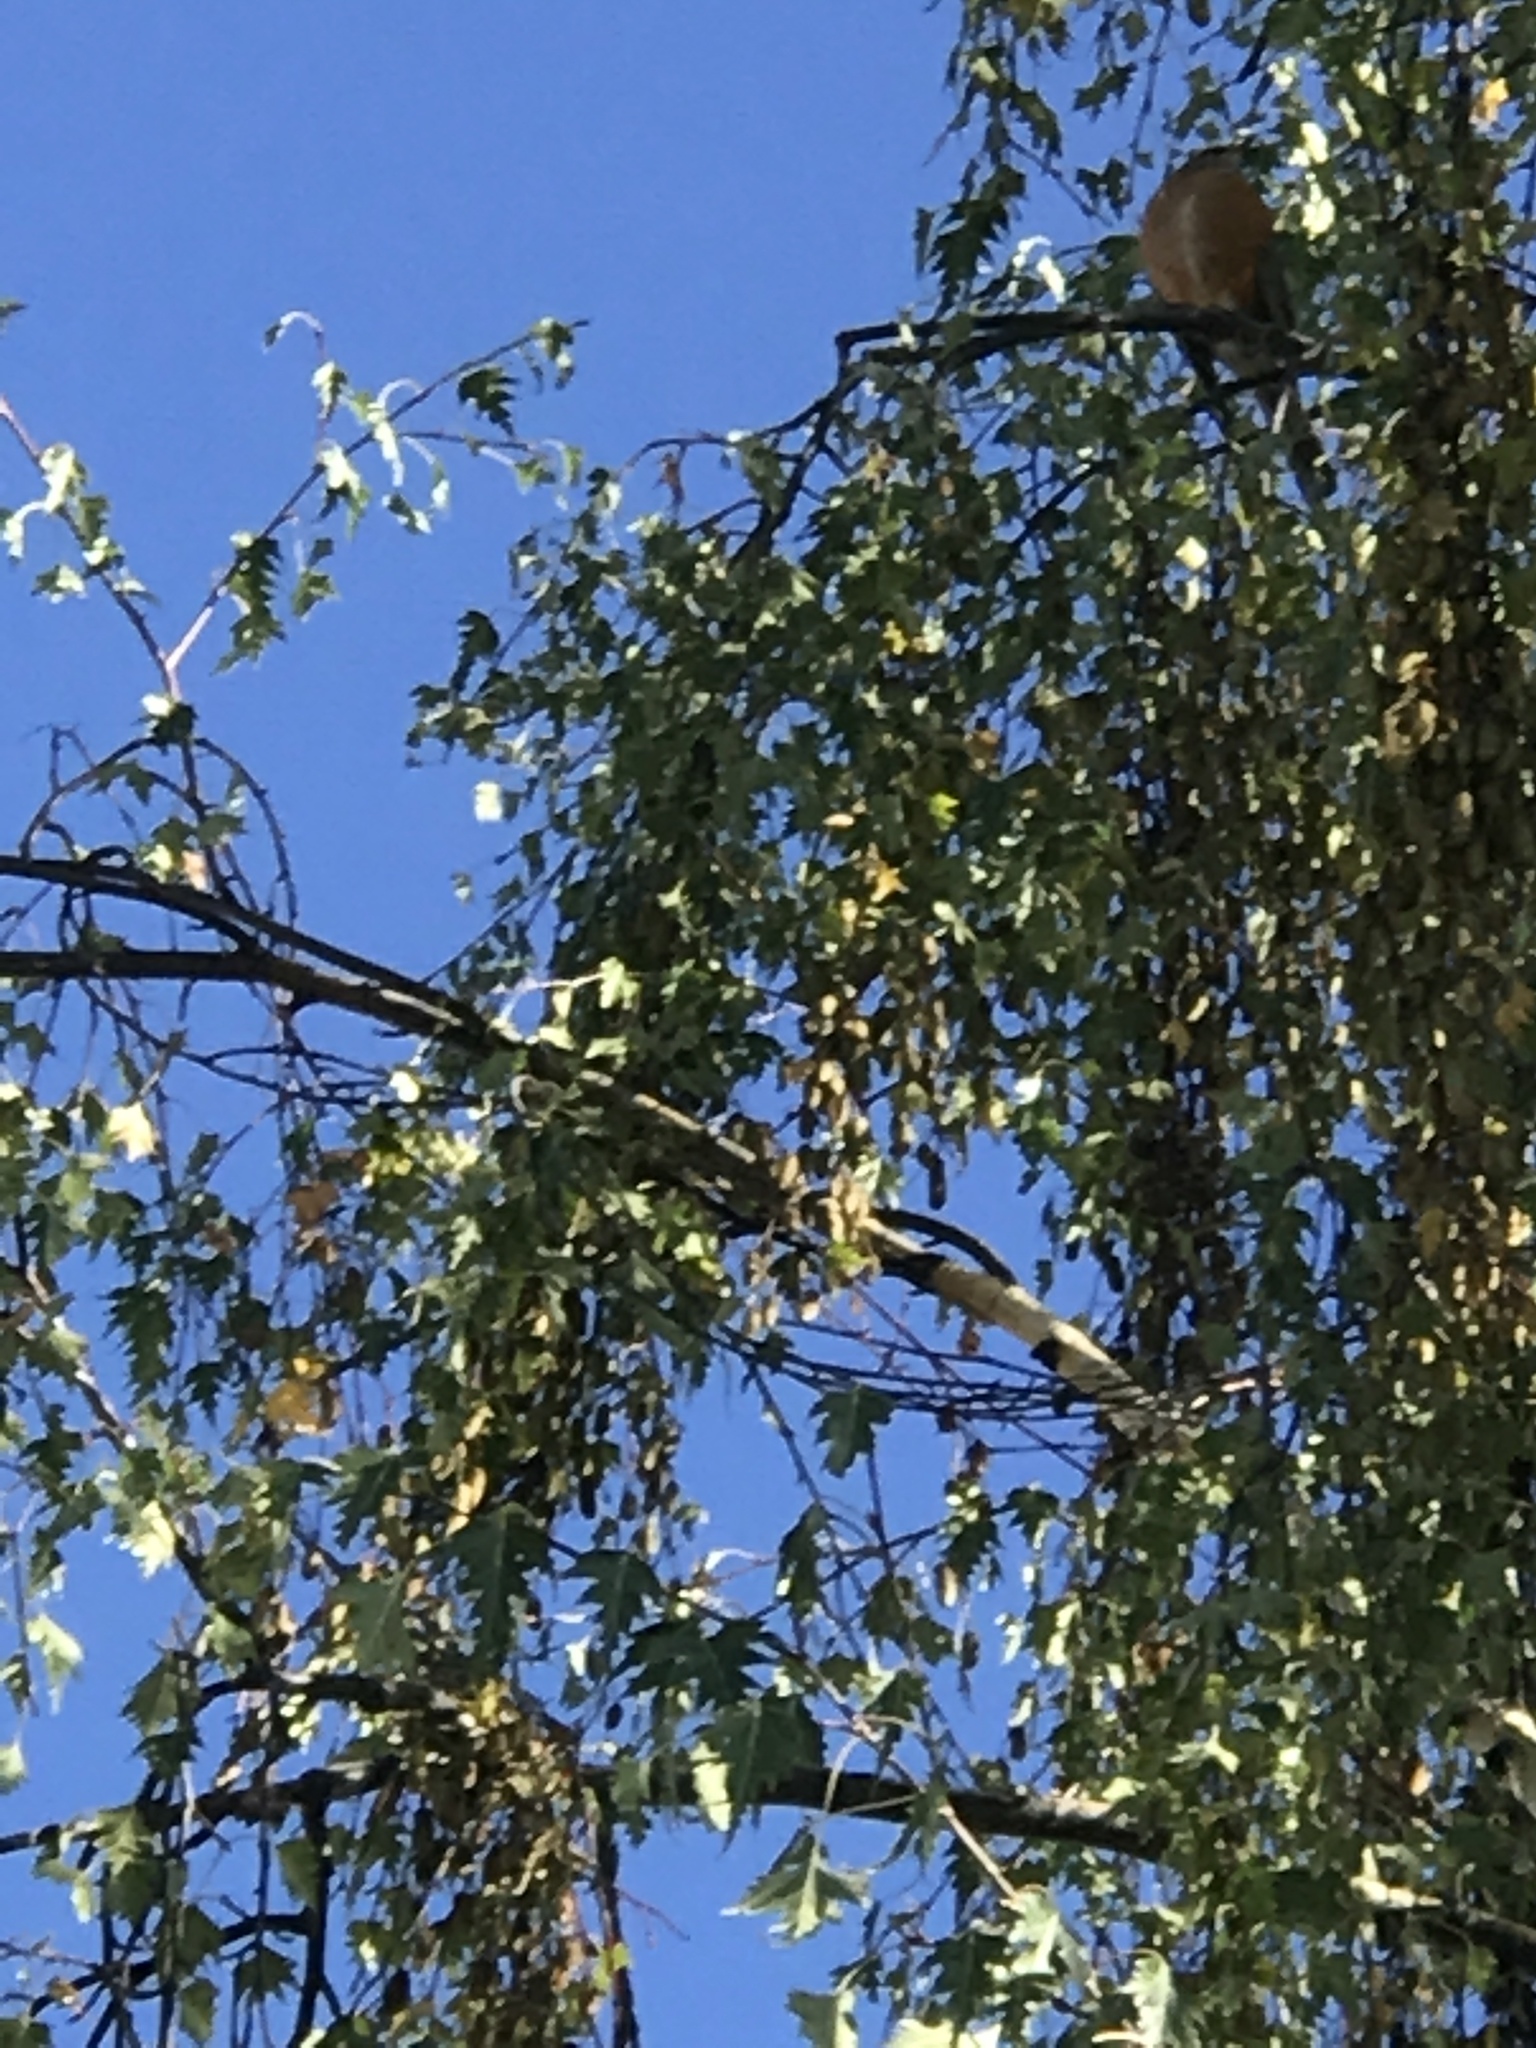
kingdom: Animalia
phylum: Chordata
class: Aves
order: Passeriformes
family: Turdidae
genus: Turdus
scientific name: Turdus migratorius
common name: American robin
